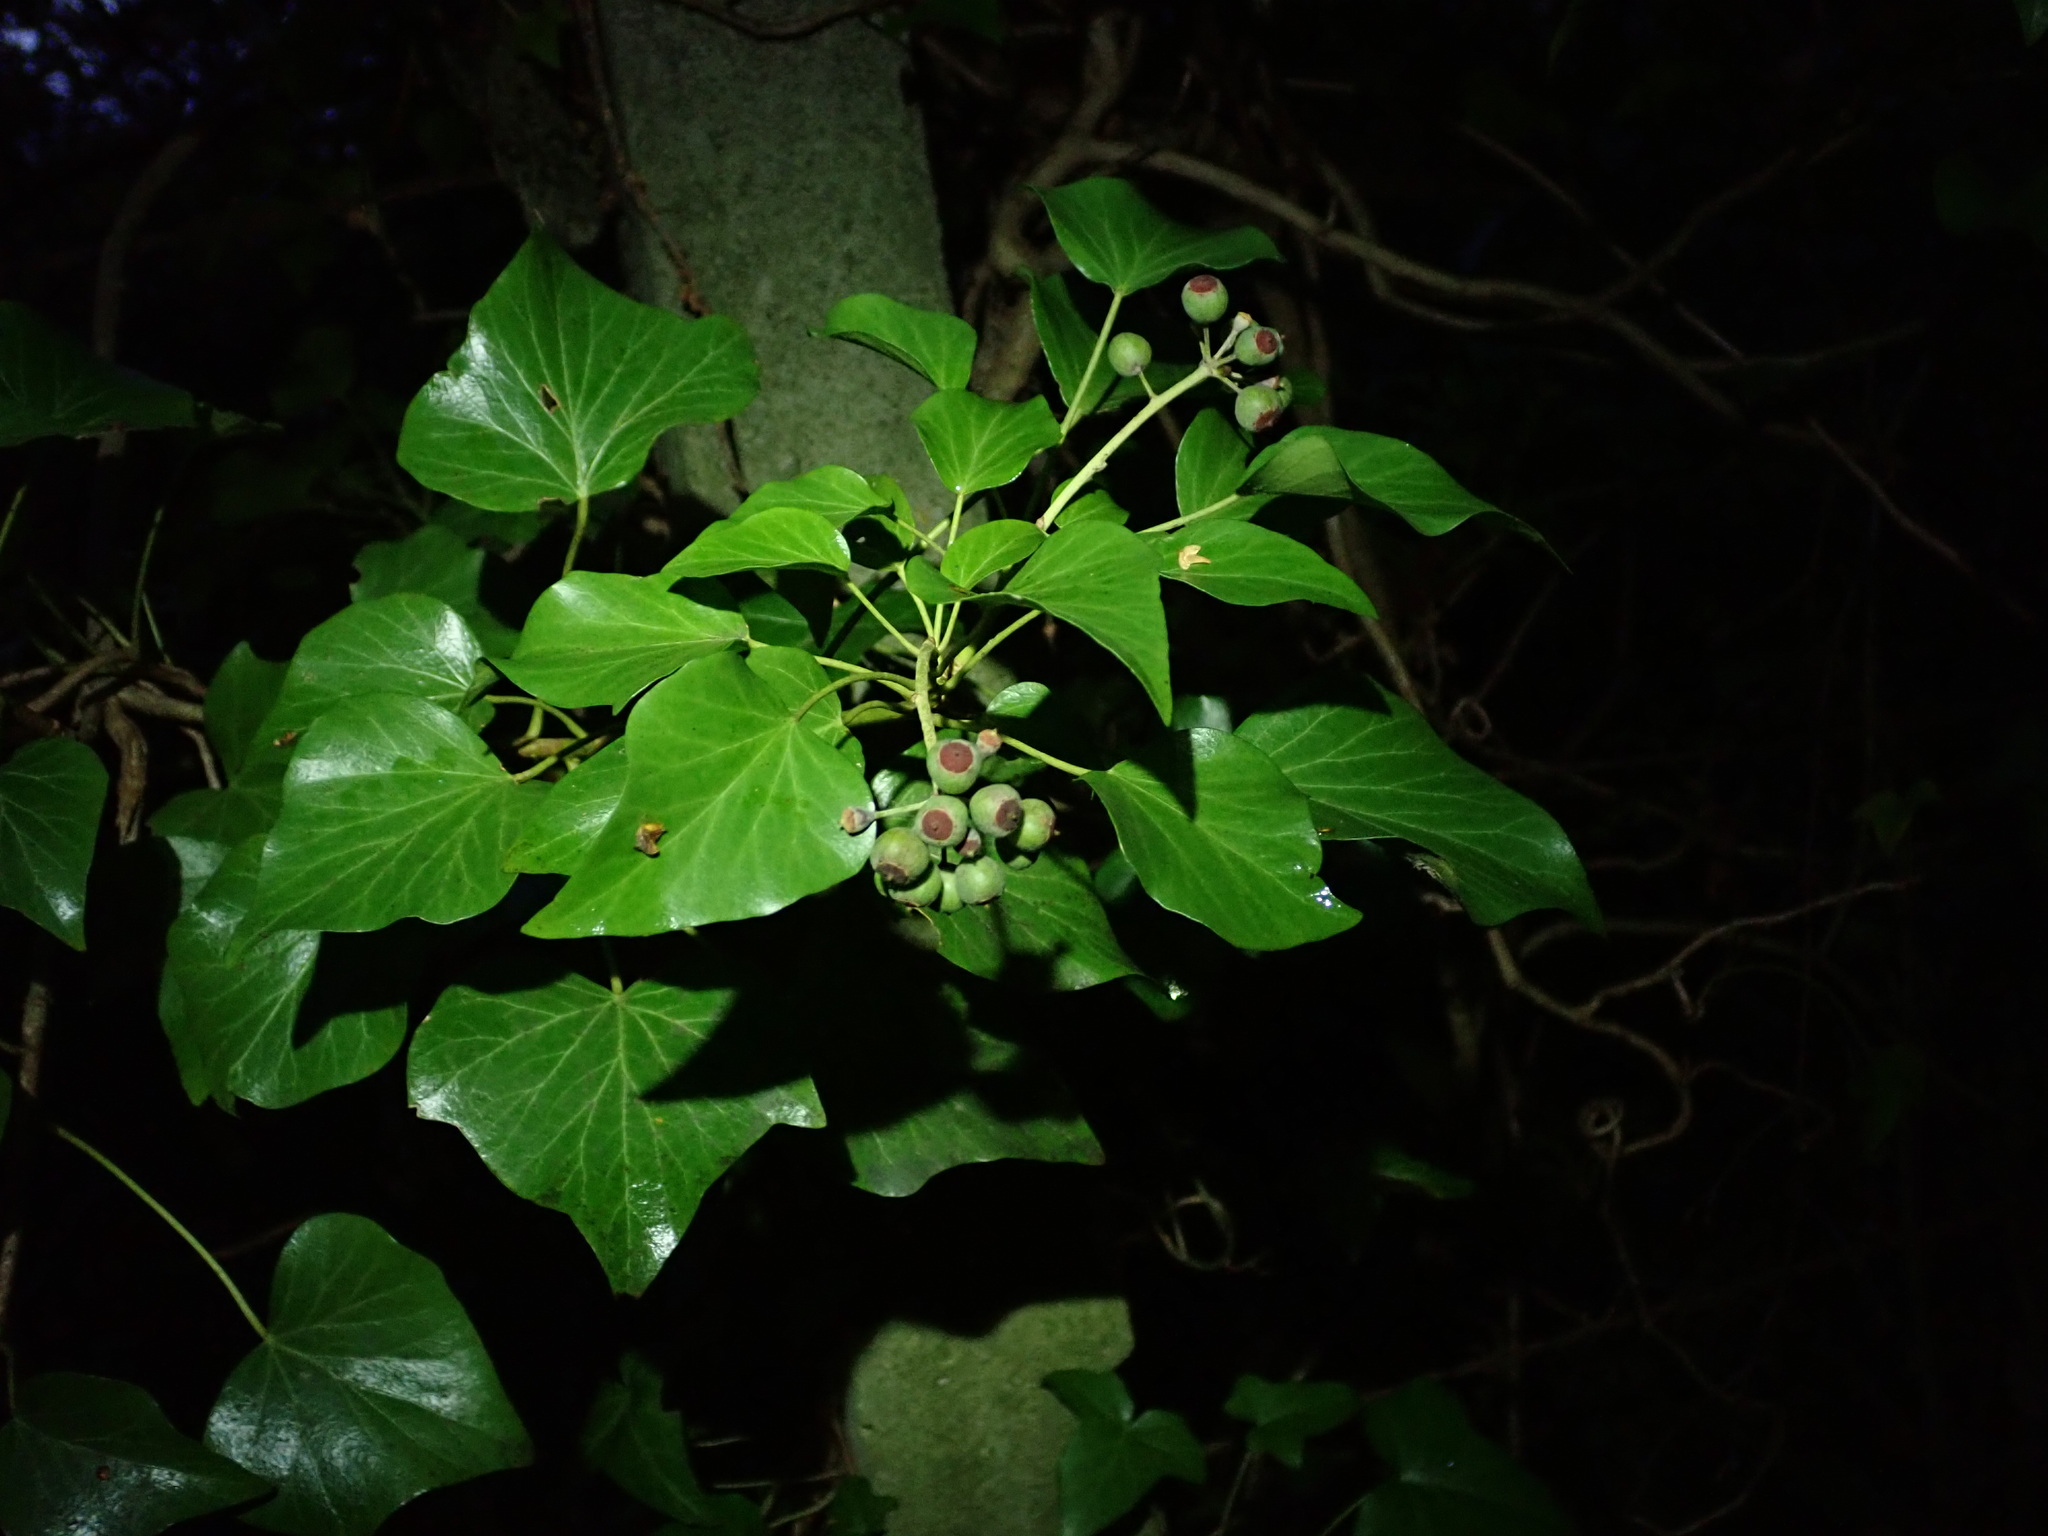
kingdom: Plantae
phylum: Tracheophyta
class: Magnoliopsida
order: Apiales
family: Araliaceae
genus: Hedera
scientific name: Hedera helix
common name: Ivy
